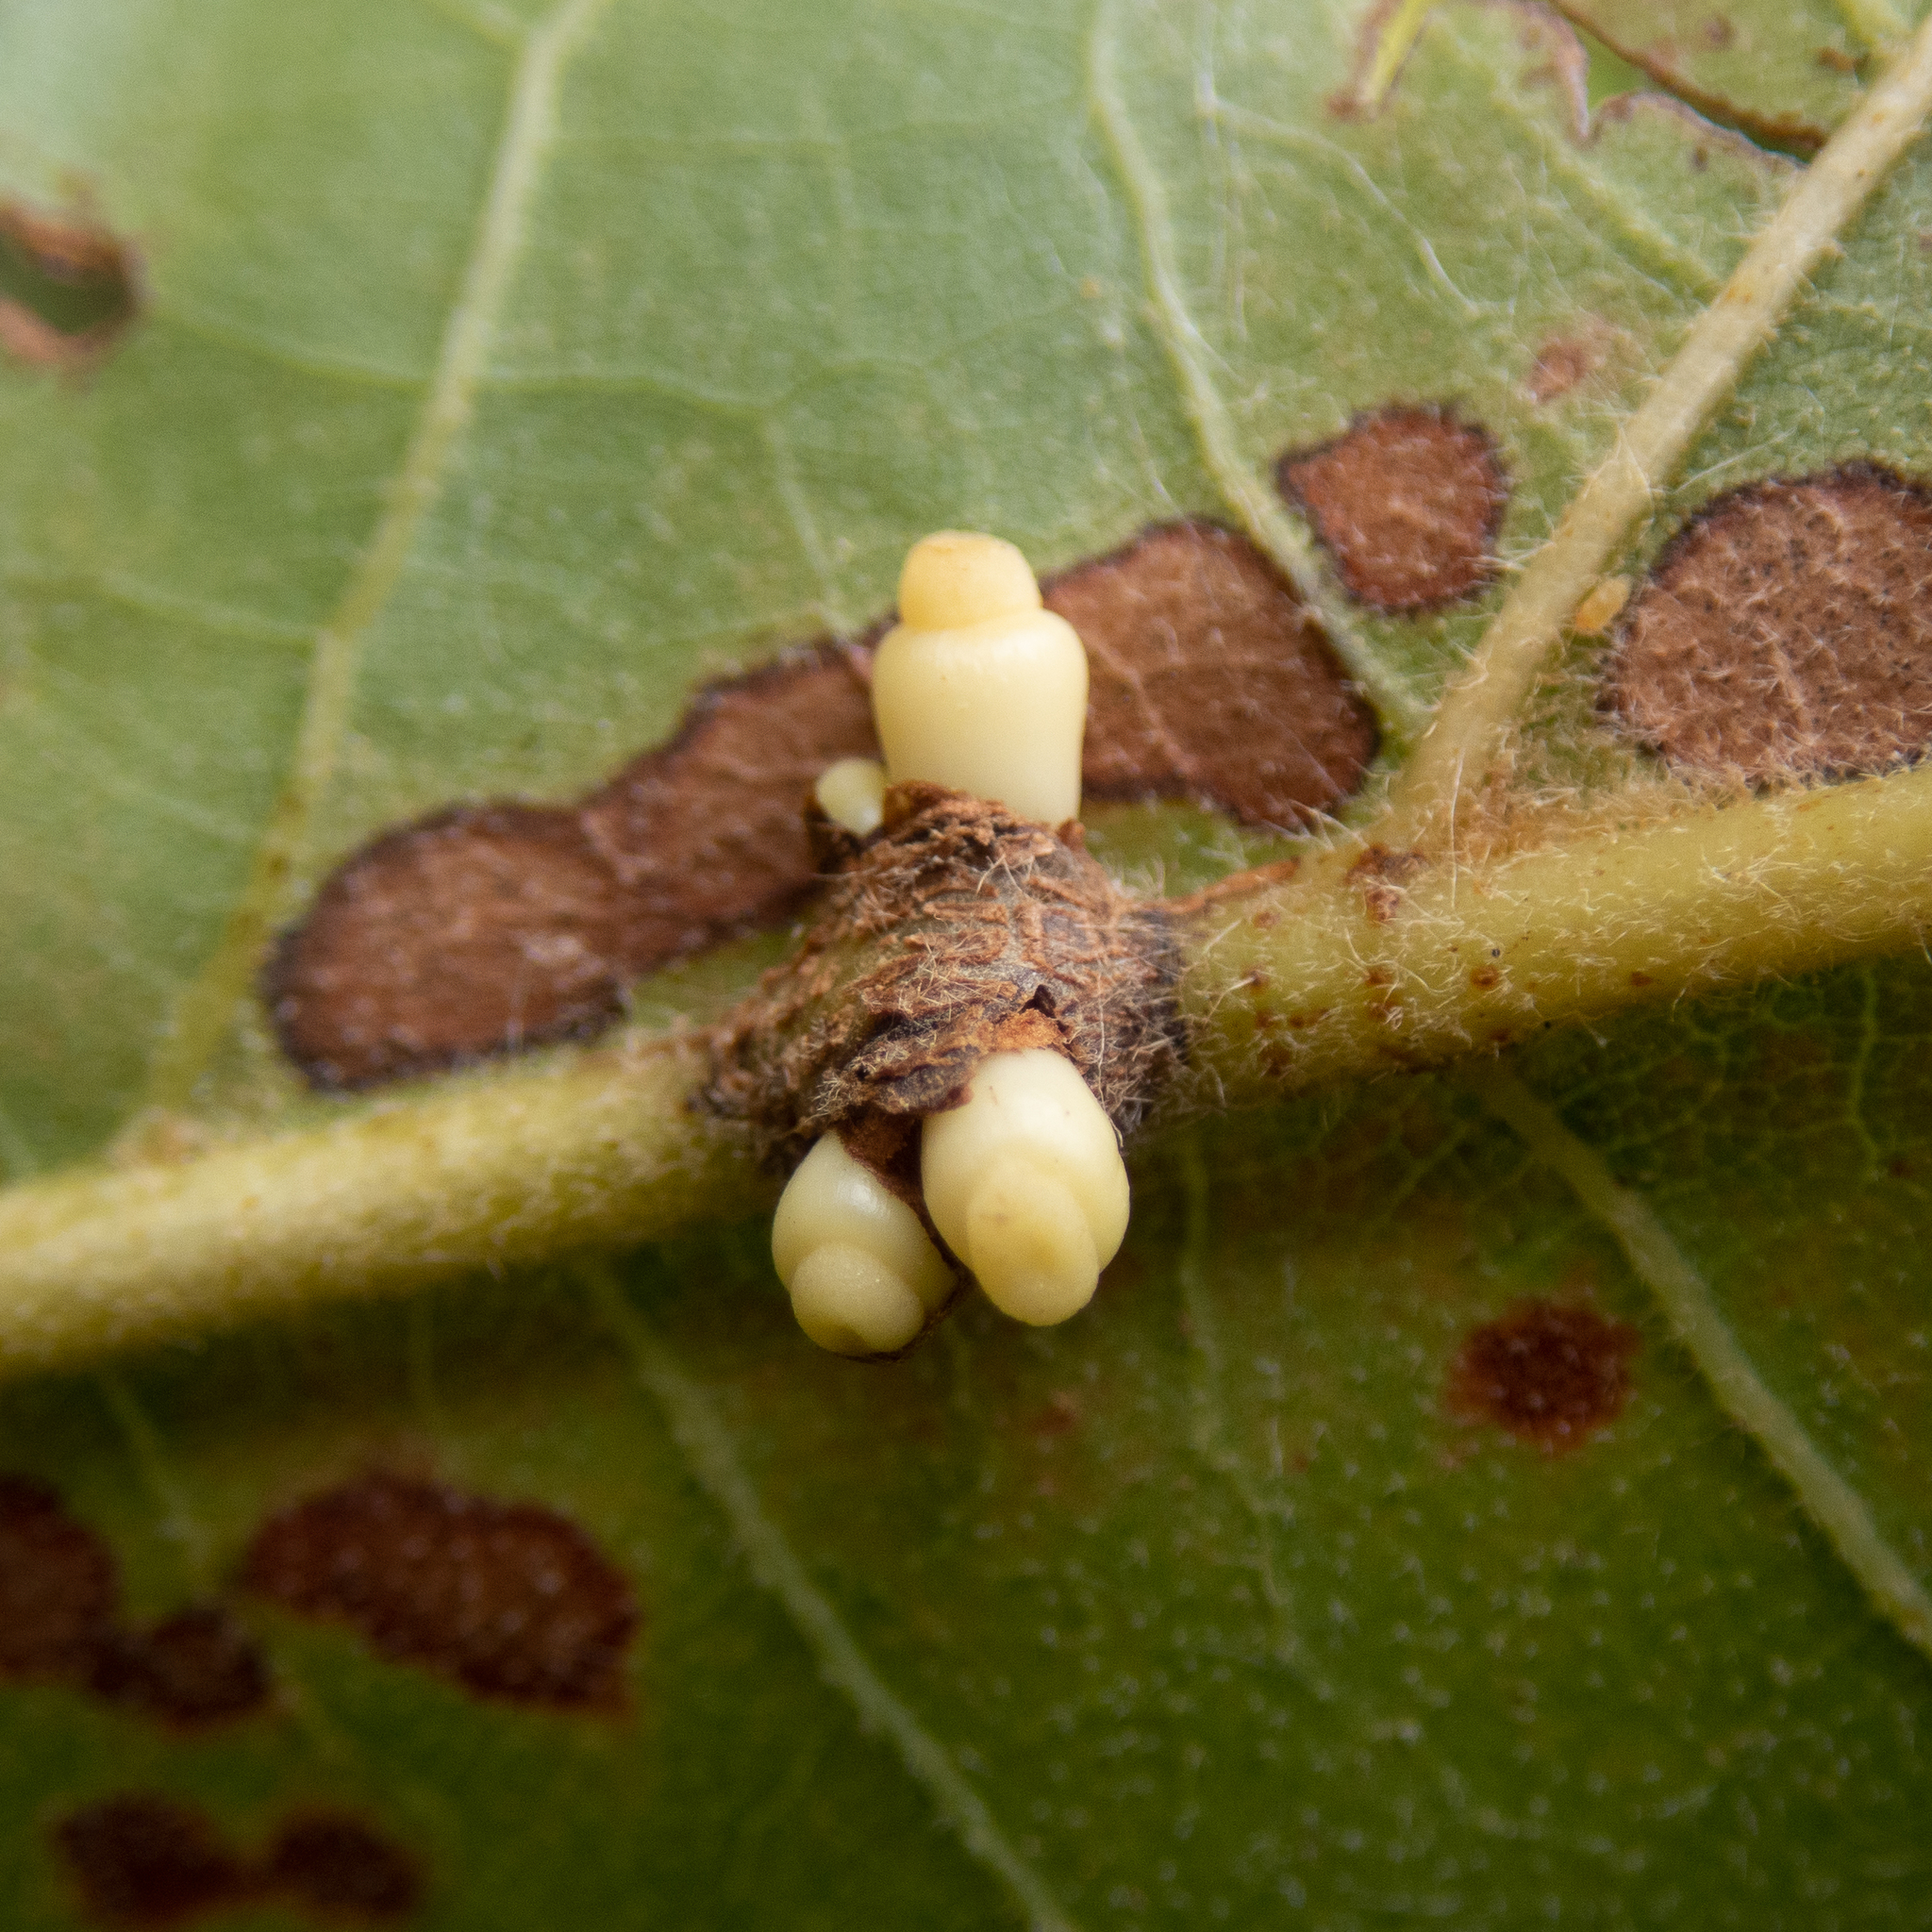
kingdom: Animalia
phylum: Arthropoda
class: Insecta
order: Hymenoptera
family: Cynipidae
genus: Kokkocynips
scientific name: Kokkocynips decidua
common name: Oak wheat gall
